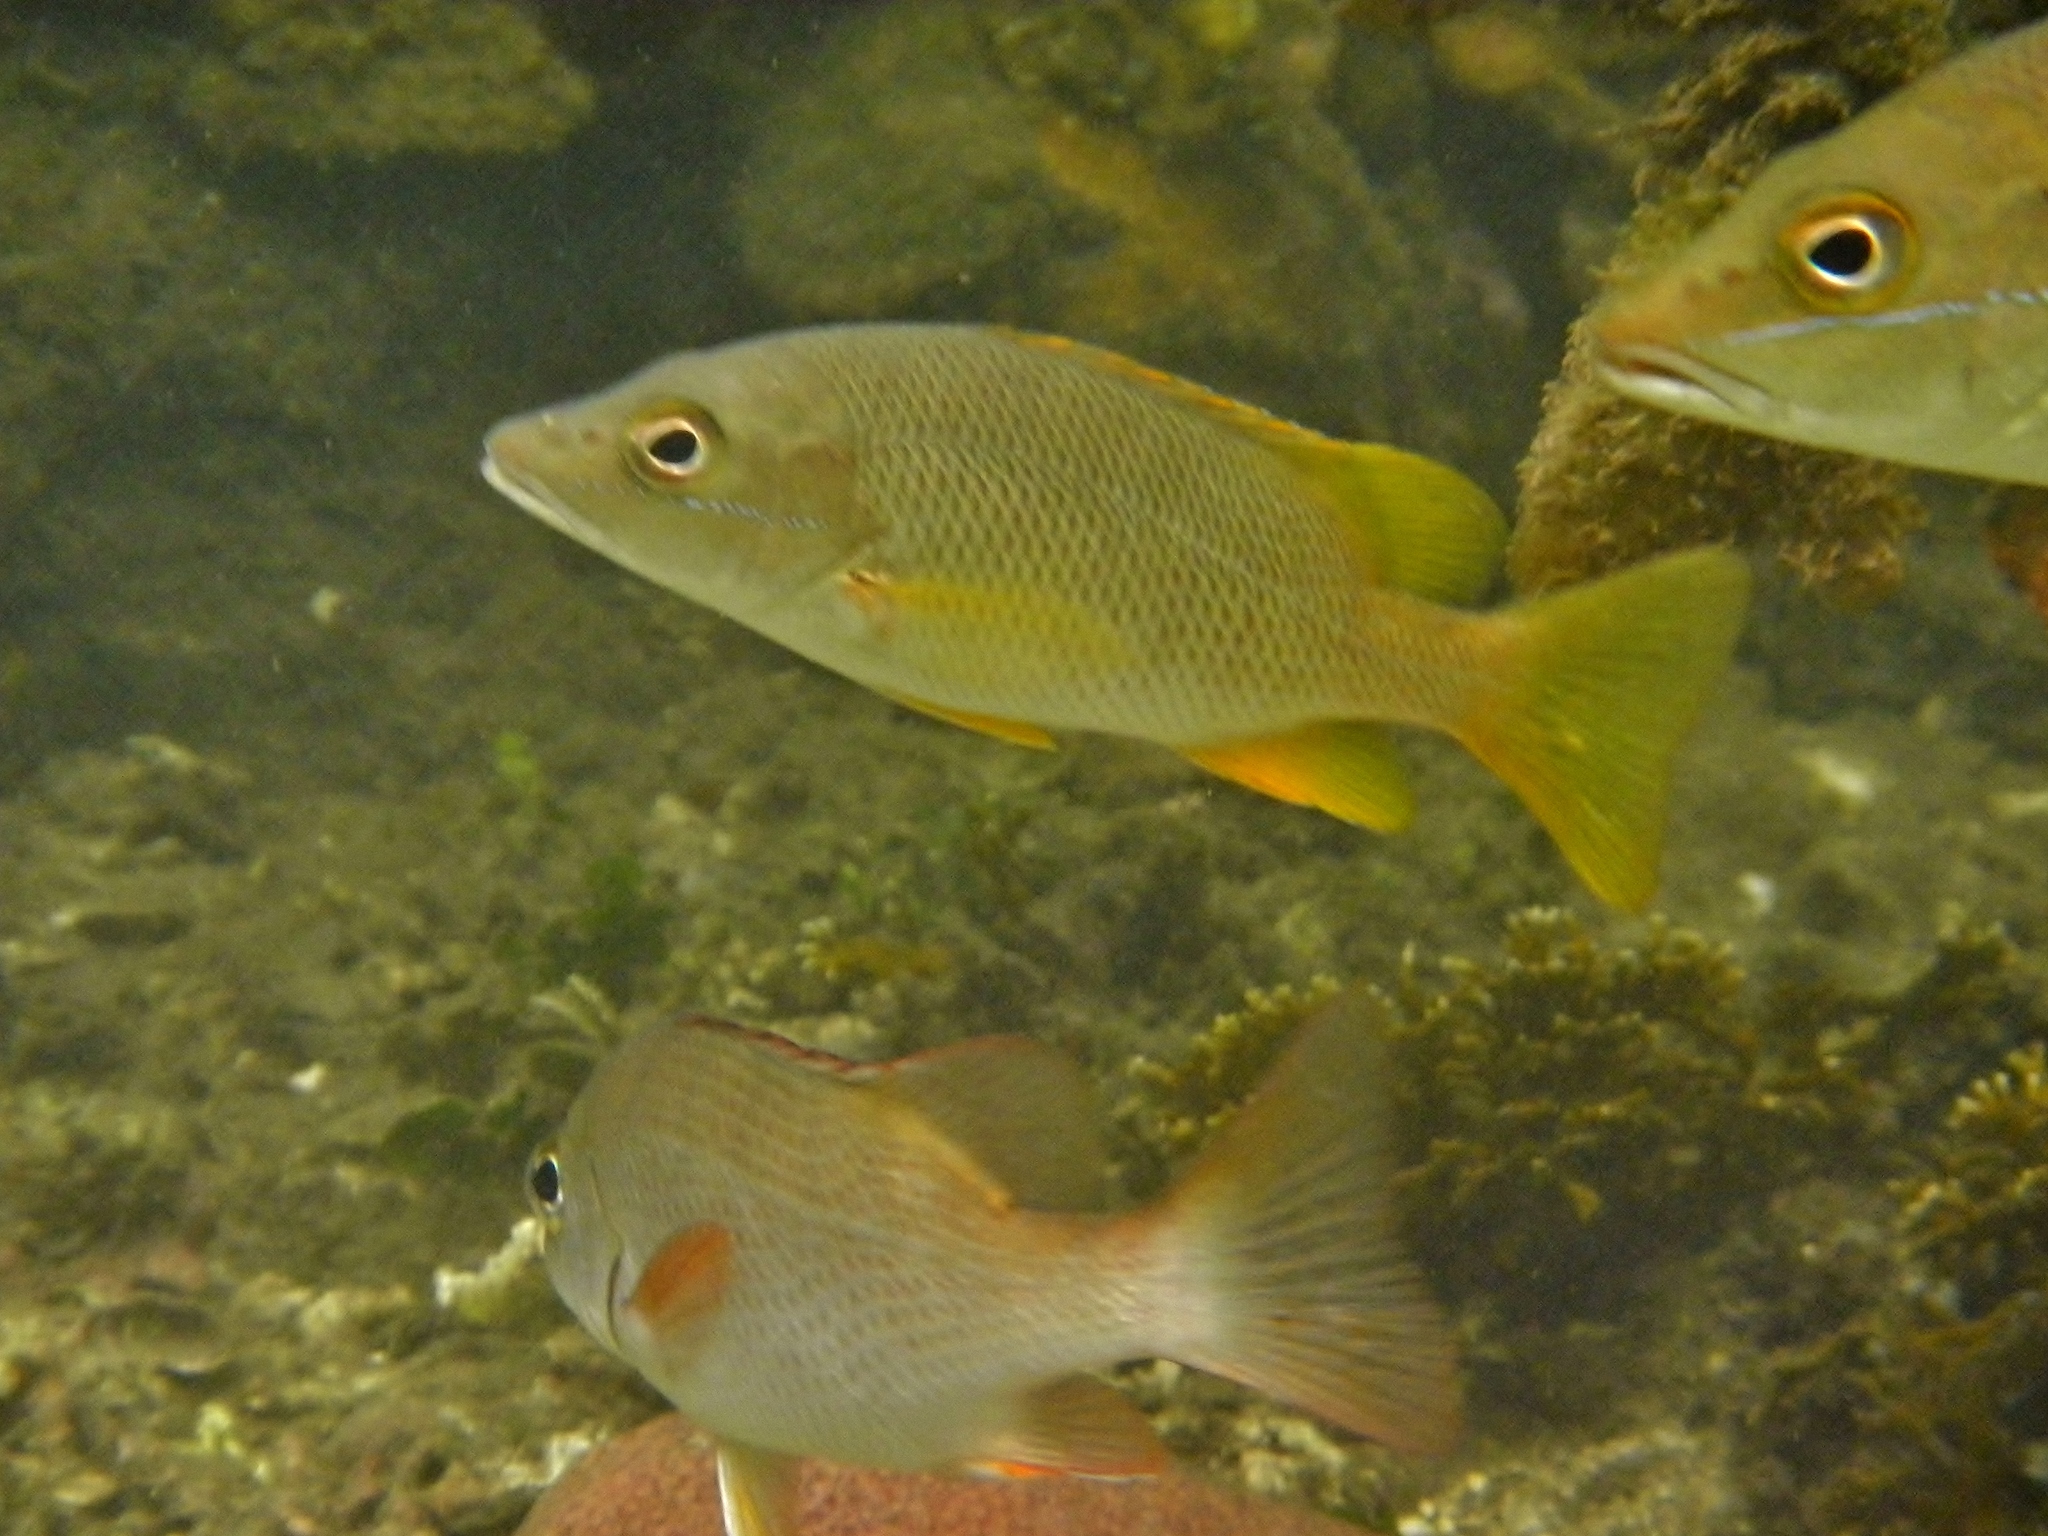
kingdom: Animalia
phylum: Chordata
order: Perciformes
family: Lutjanidae
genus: Lutjanus
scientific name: Lutjanus apodus
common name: Schoolmaster
